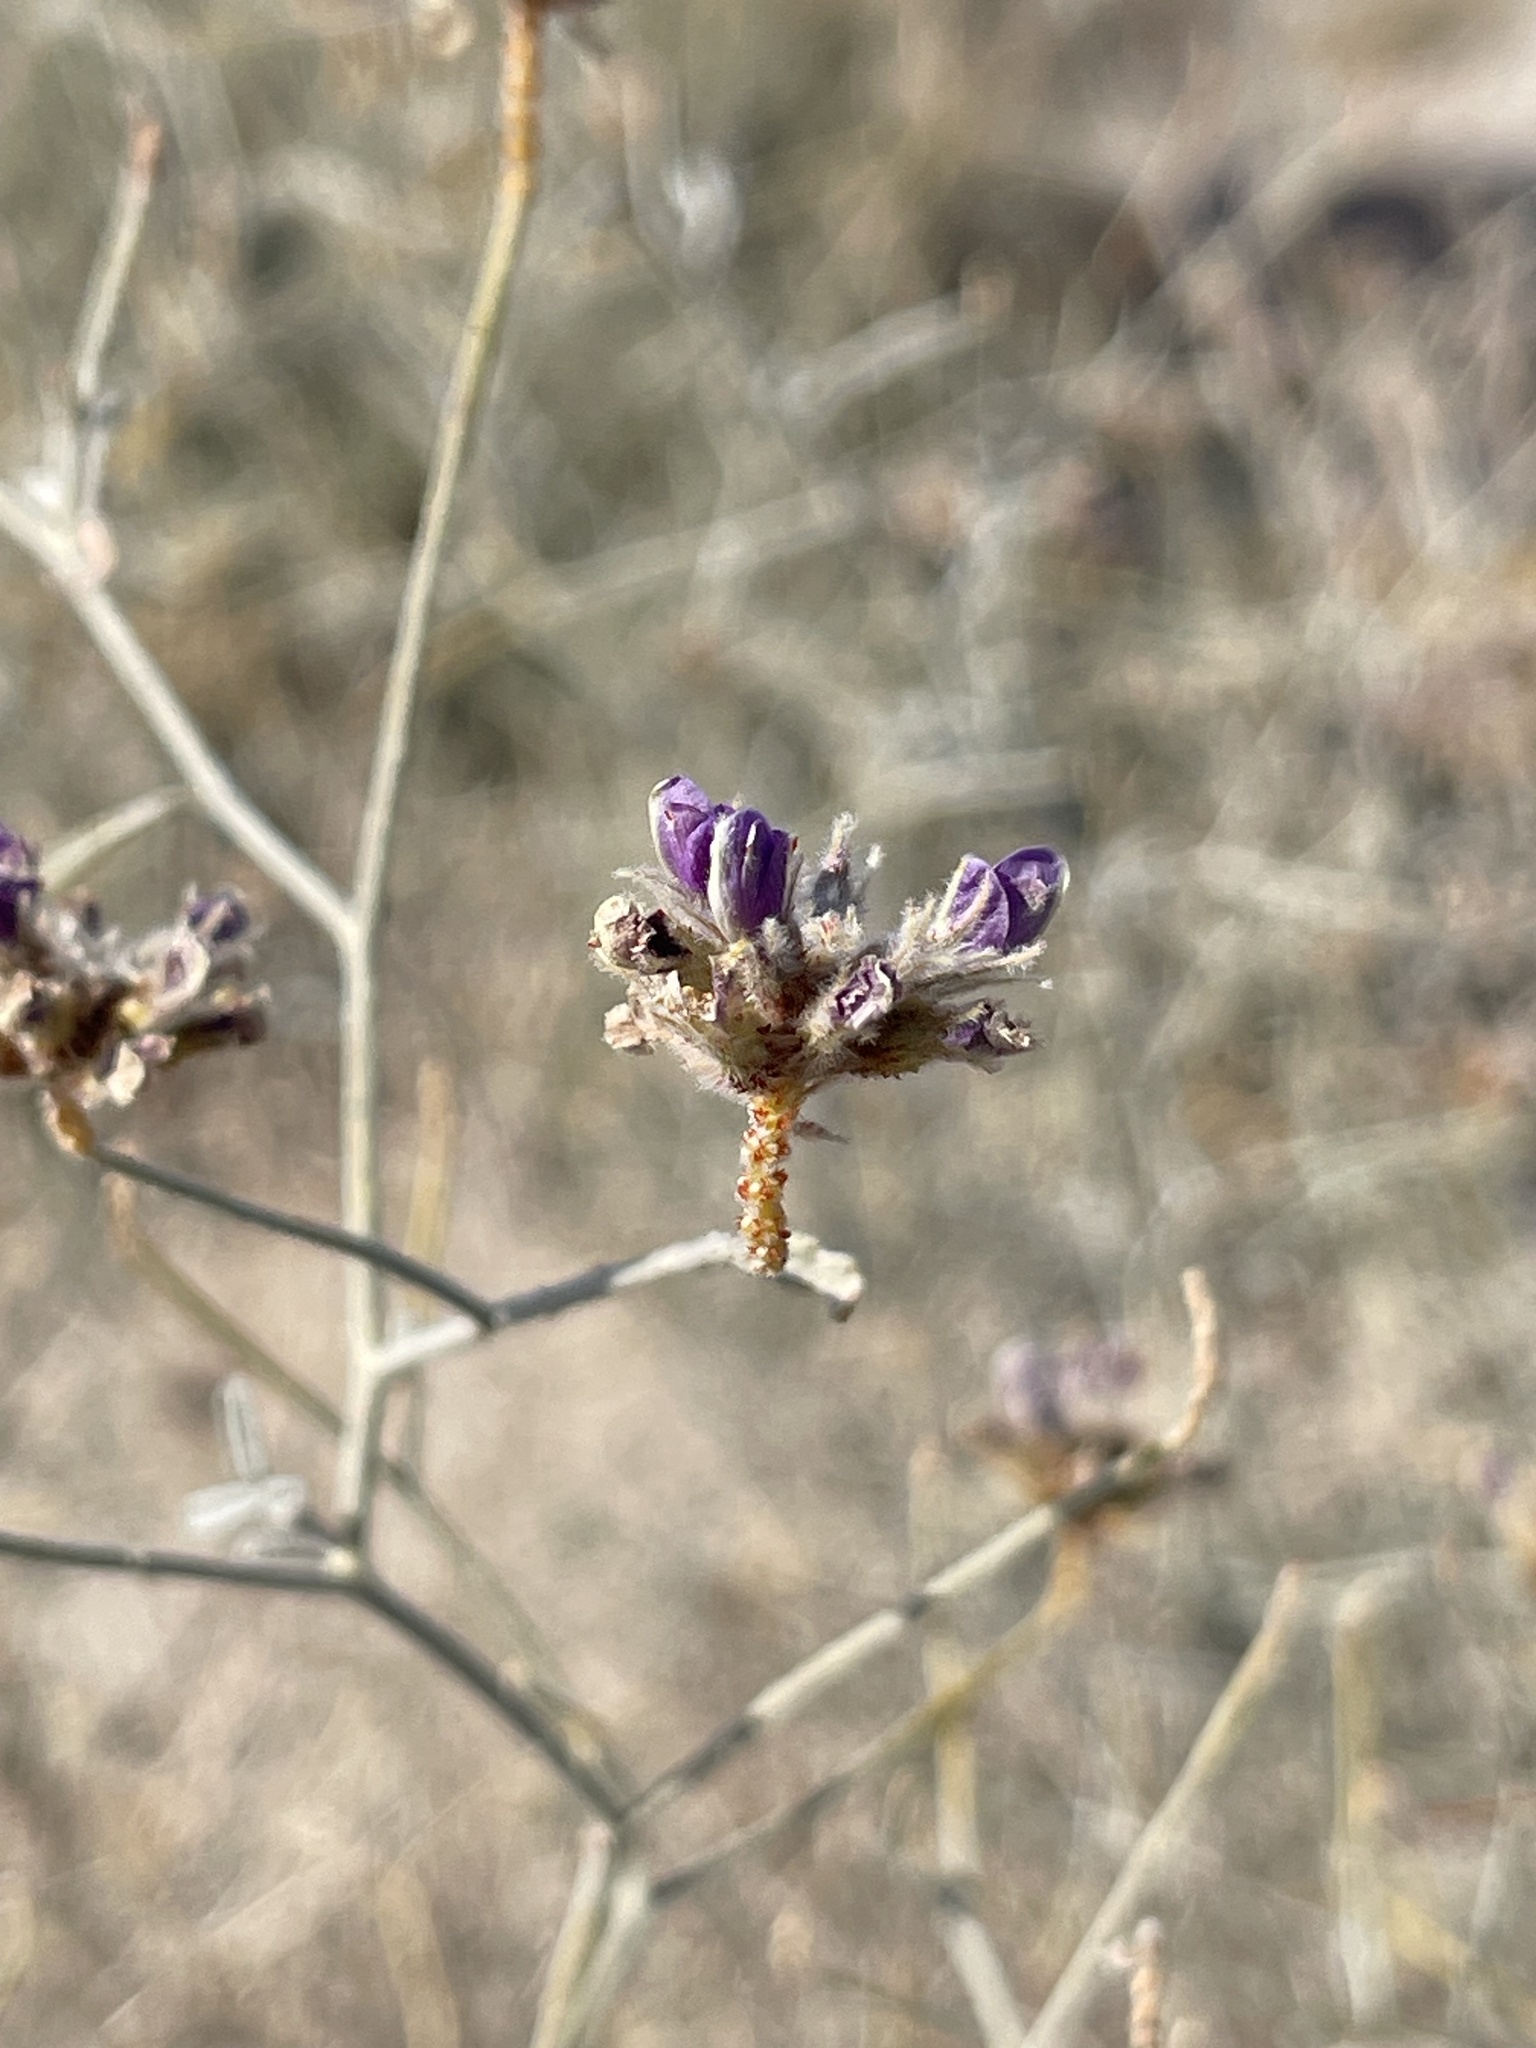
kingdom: Plantae
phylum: Tracheophyta
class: Magnoliopsida
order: Fabales
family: Fabaceae
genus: Psorothamnus
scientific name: Psorothamnus emoryi
